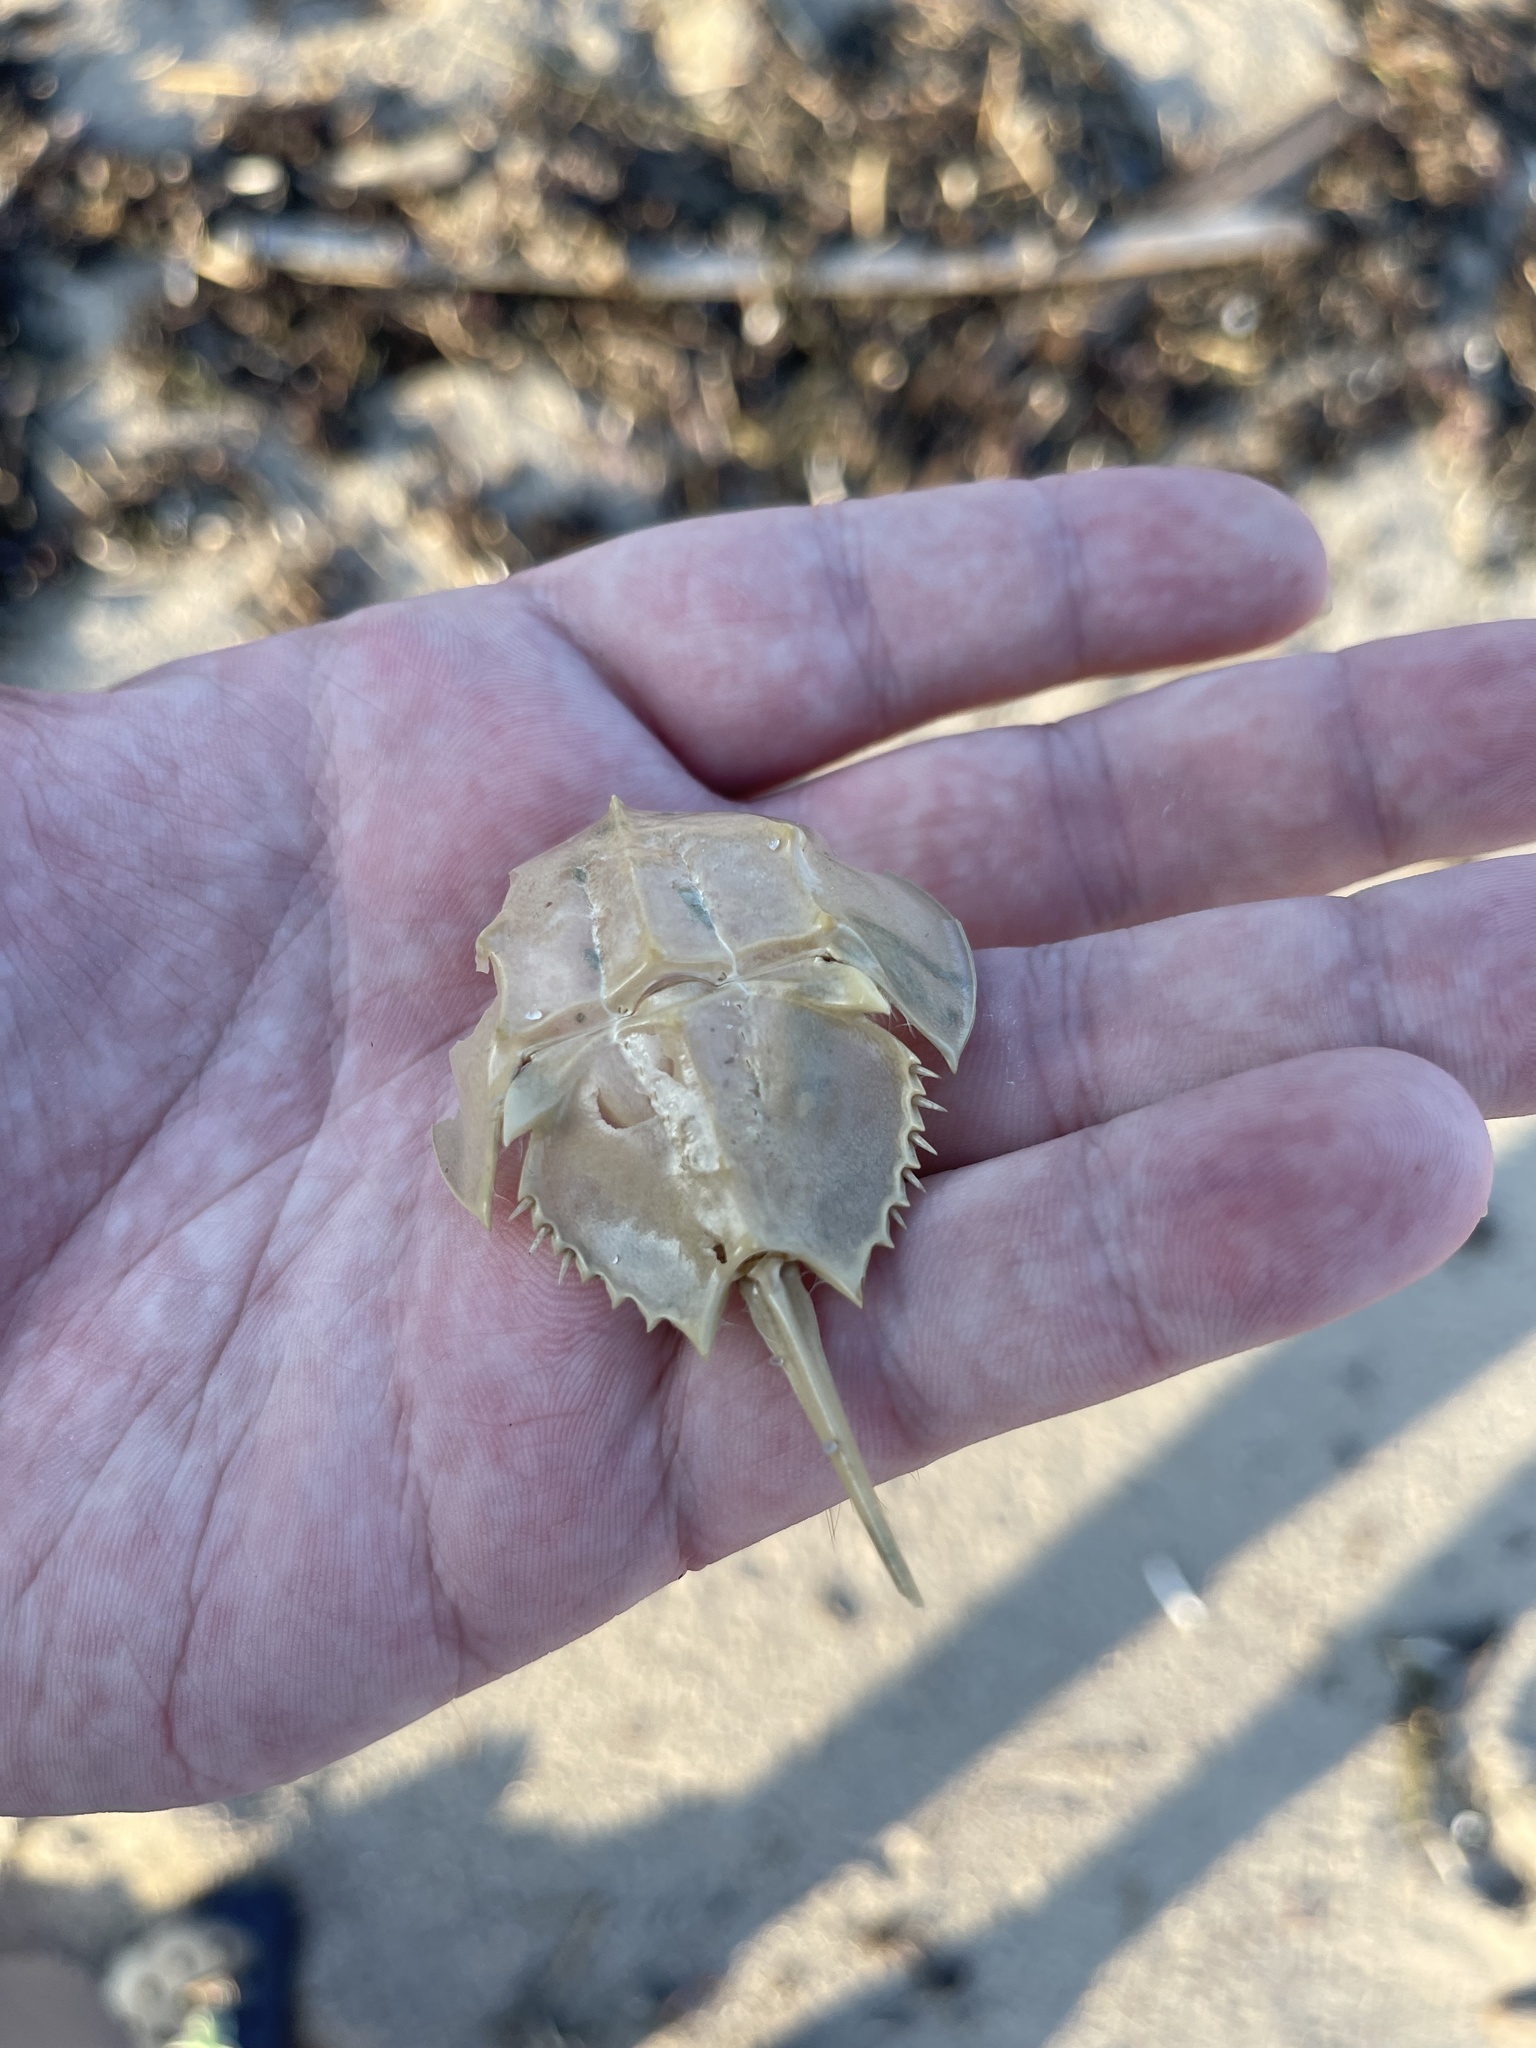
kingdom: Animalia
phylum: Arthropoda
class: Merostomata
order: Xiphosurida
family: Limulidae
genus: Limulus
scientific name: Limulus polyphemus
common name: Horseshoe crab
